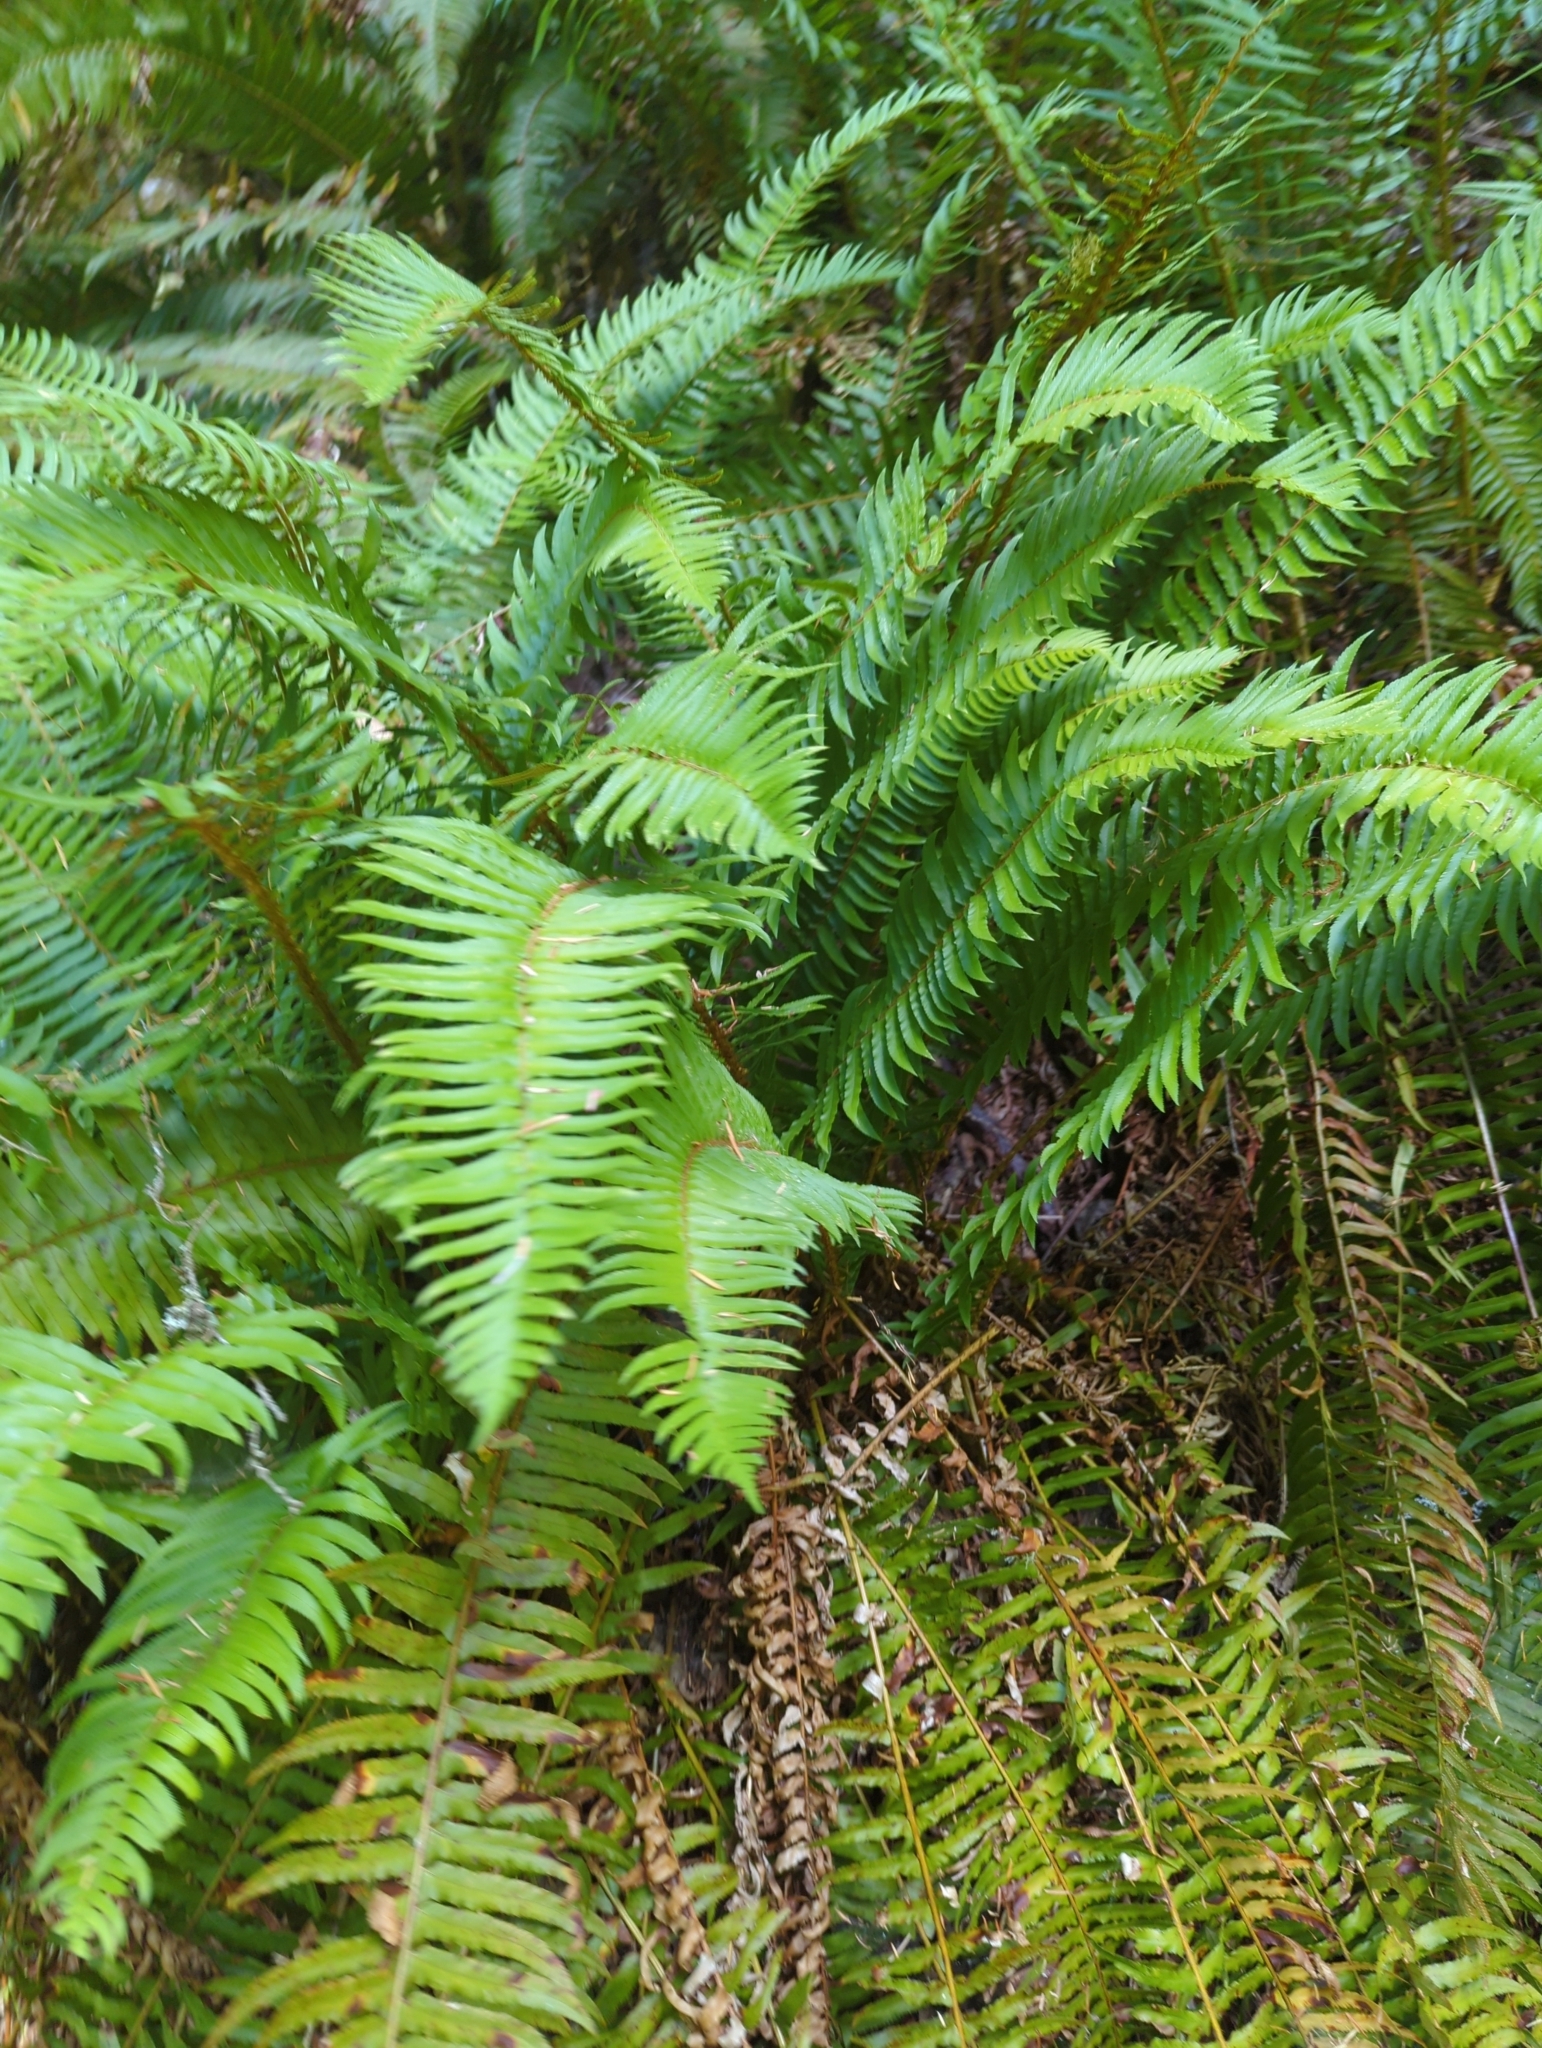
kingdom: Plantae
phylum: Tracheophyta
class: Polypodiopsida
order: Polypodiales
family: Dryopteridaceae
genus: Polystichum
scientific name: Polystichum munitum
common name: Western sword-fern
